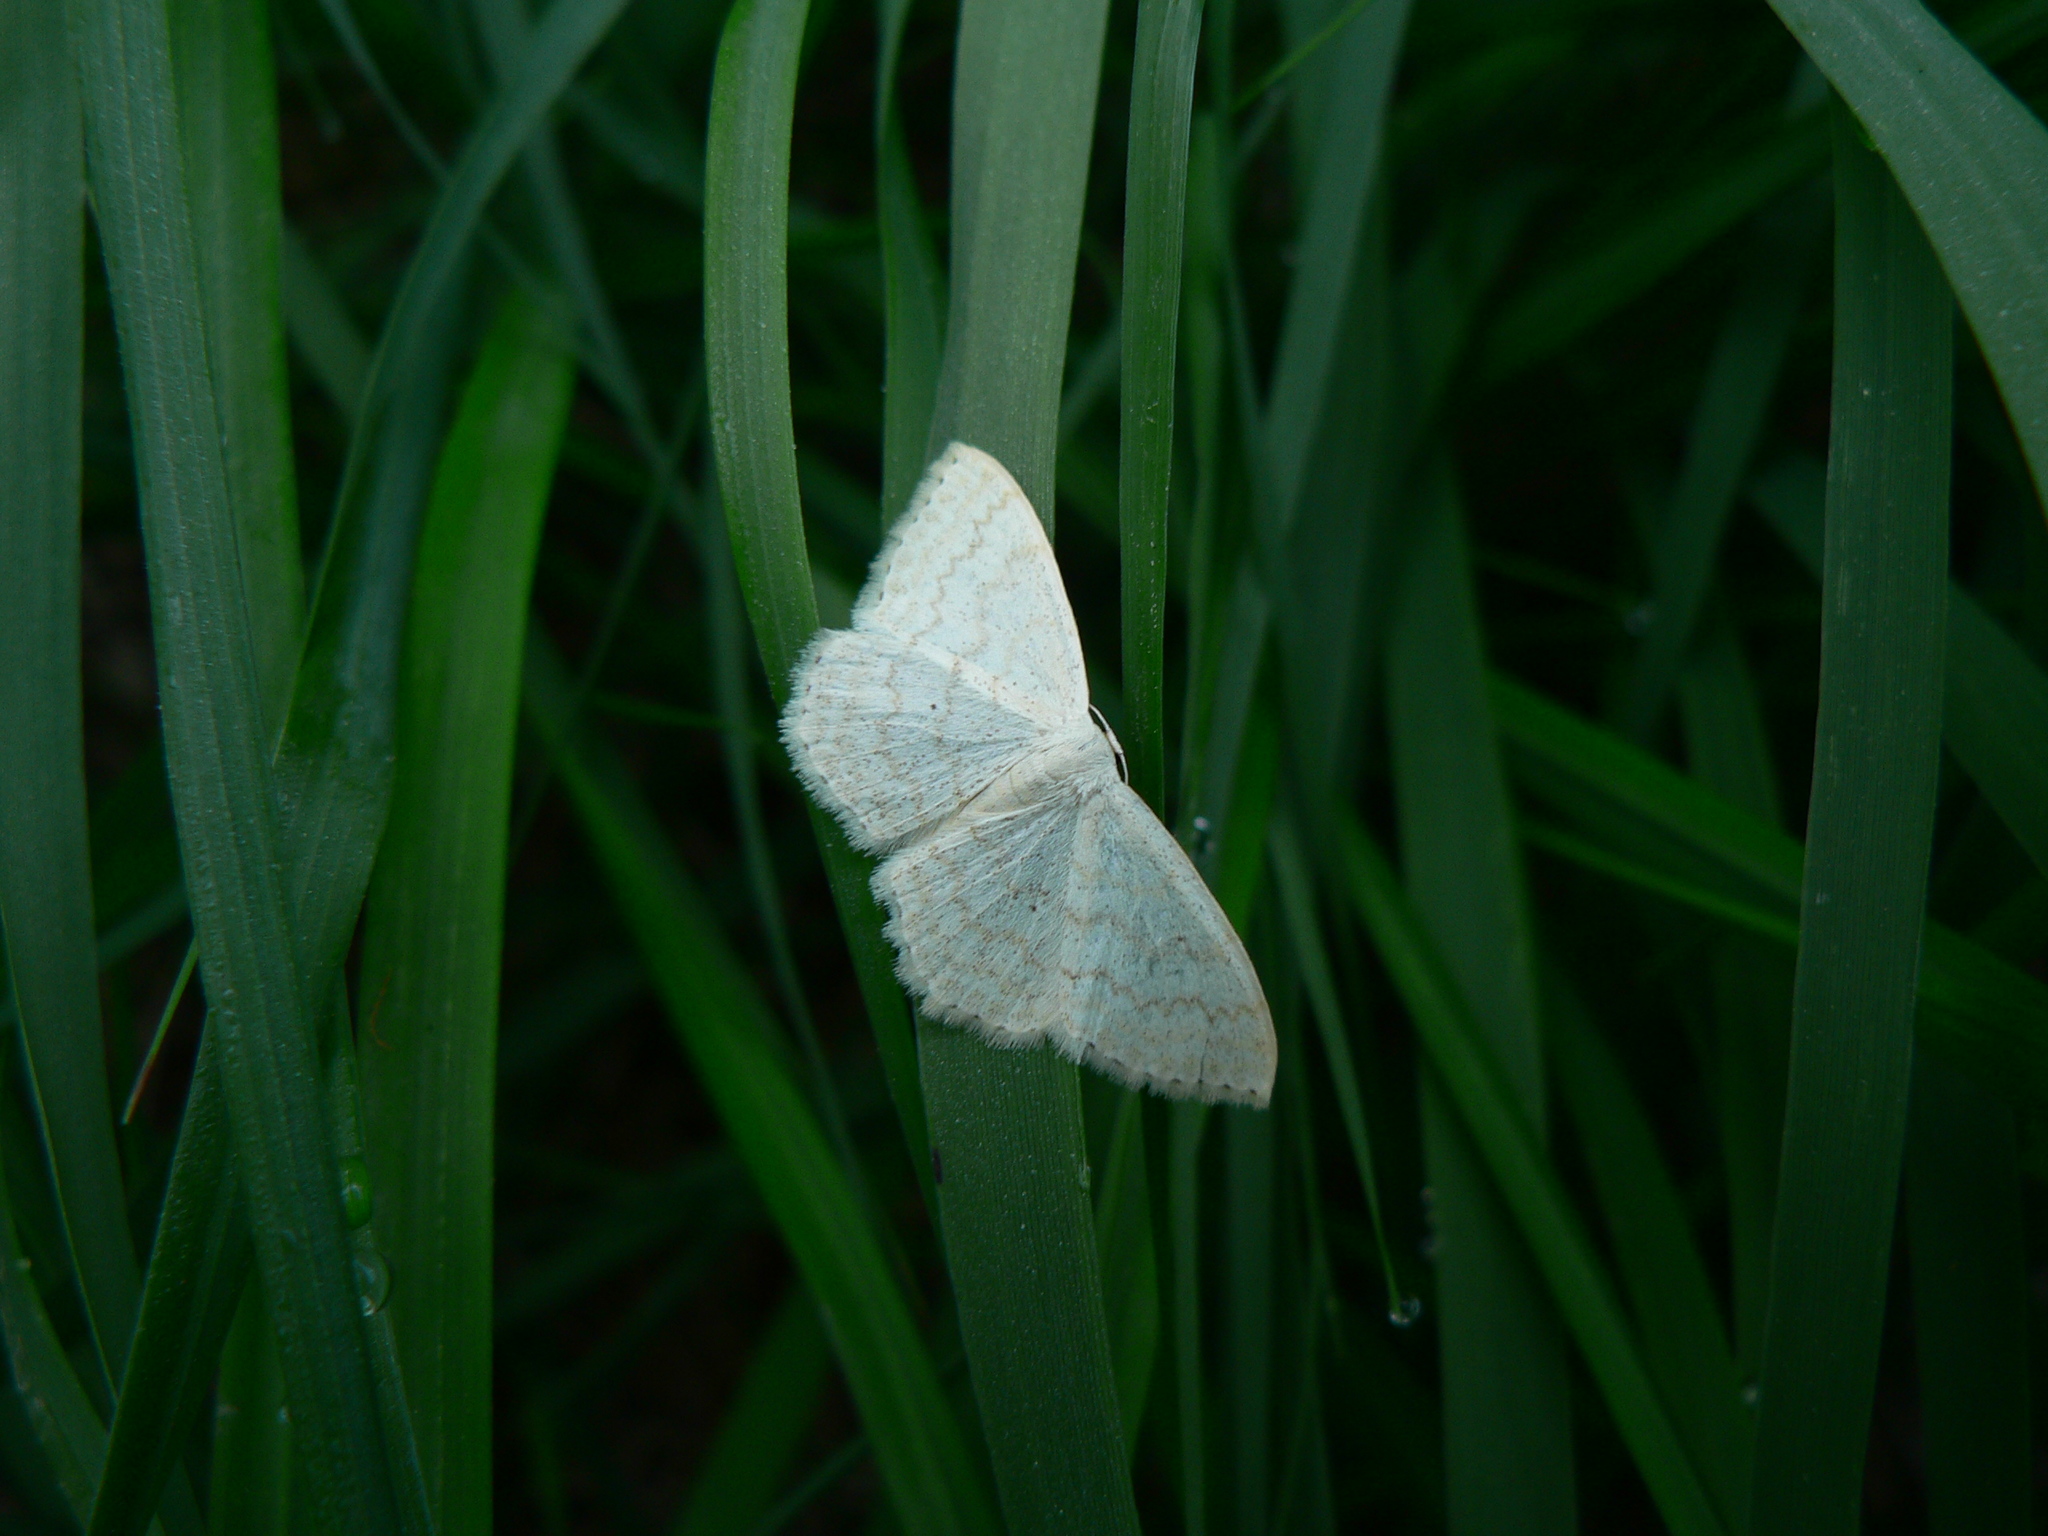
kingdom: Animalia
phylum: Arthropoda
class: Insecta
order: Lepidoptera
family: Geometridae
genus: Scopula
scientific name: Scopula floslactata
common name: Cream wave
